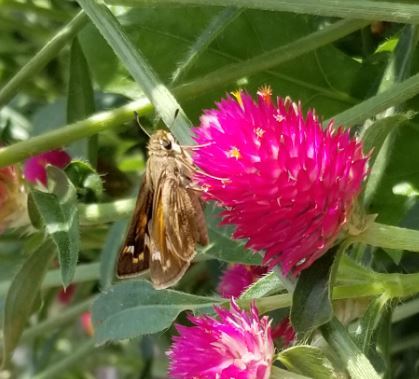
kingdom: Animalia
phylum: Arthropoda
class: Insecta
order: Lepidoptera
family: Hesperiidae
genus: Atalopedes
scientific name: Atalopedes
